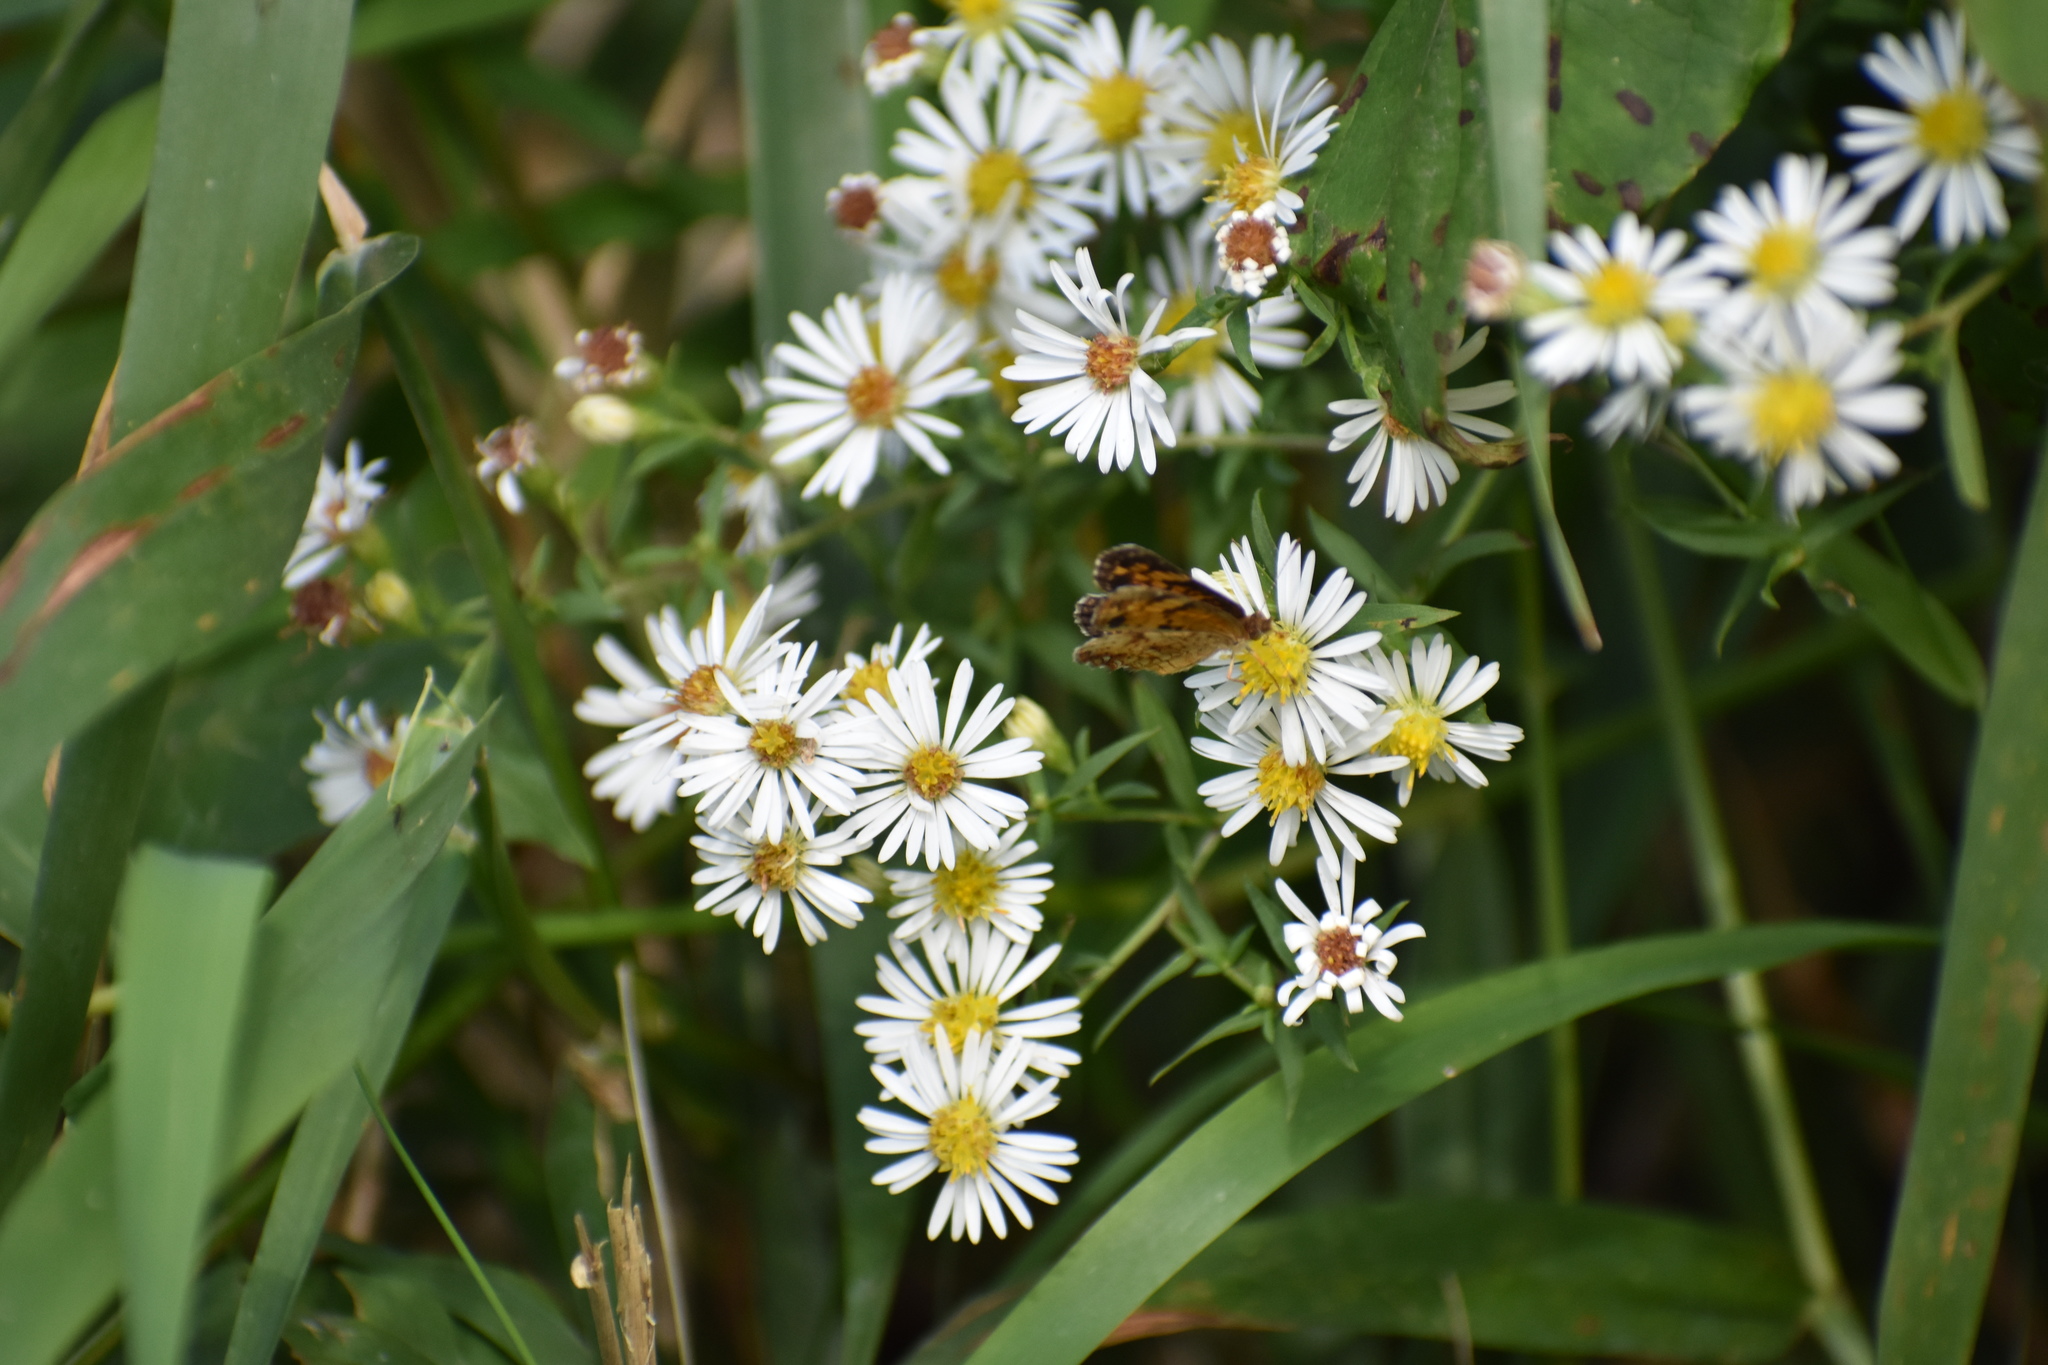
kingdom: Animalia
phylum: Arthropoda
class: Insecta
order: Lepidoptera
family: Nymphalidae
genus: Phyciodes
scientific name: Phyciodes tharos
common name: Pearl crescent
